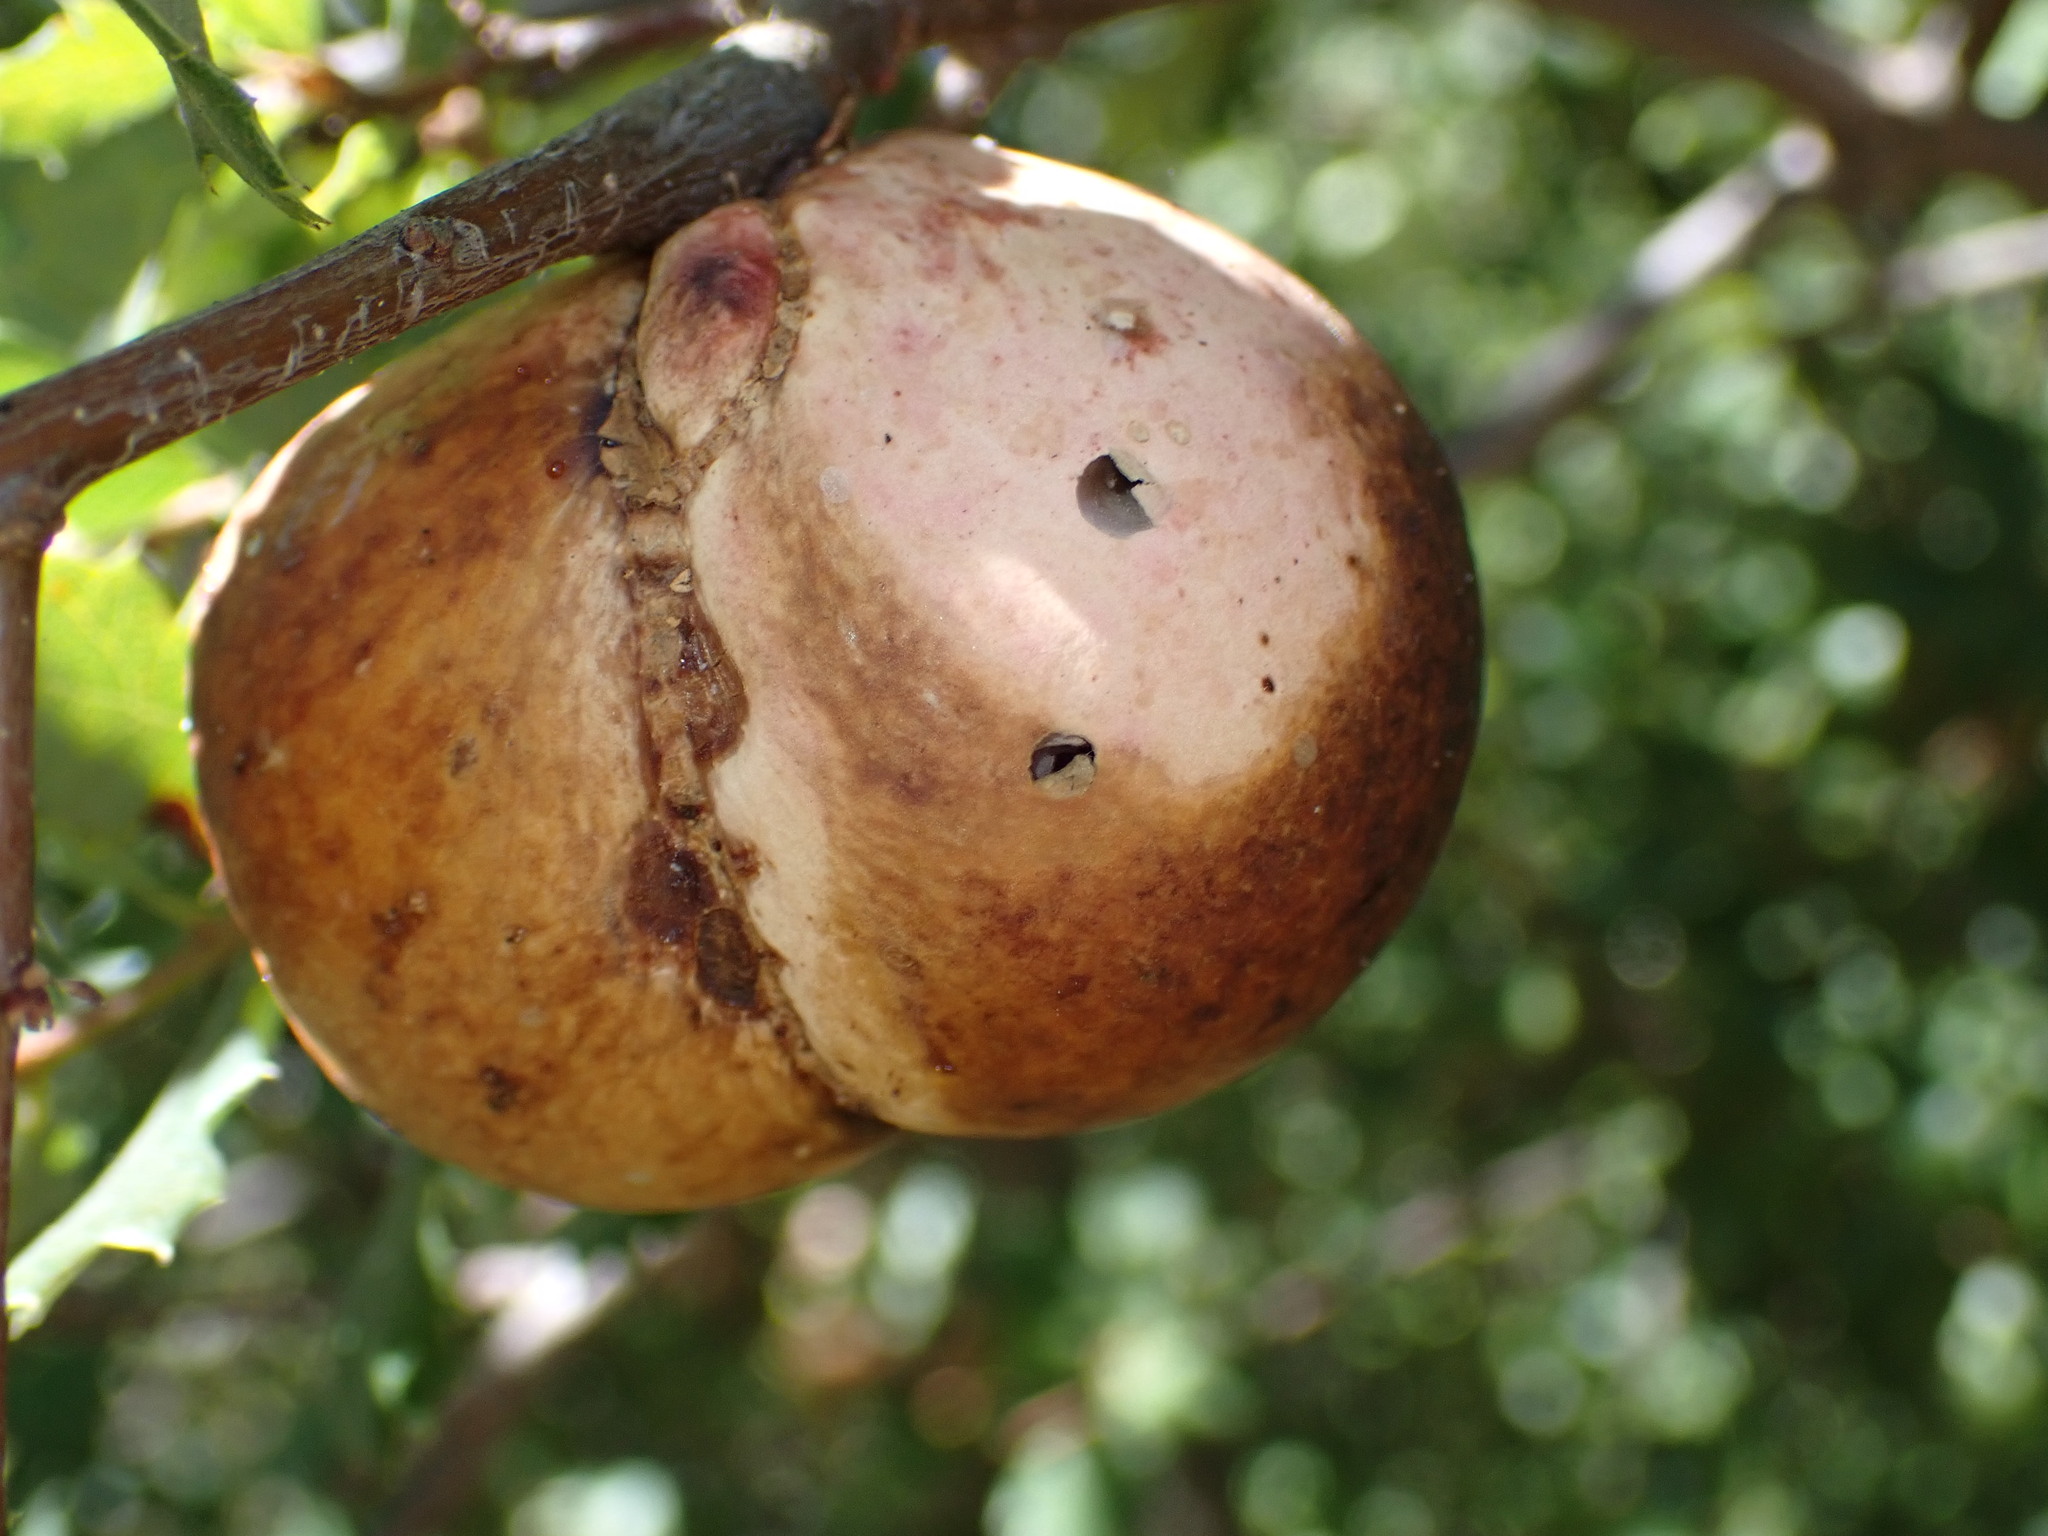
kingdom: Animalia
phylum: Arthropoda
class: Insecta
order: Hymenoptera
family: Cynipidae
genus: Andricus
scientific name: Andricus quercuscalifornicus
